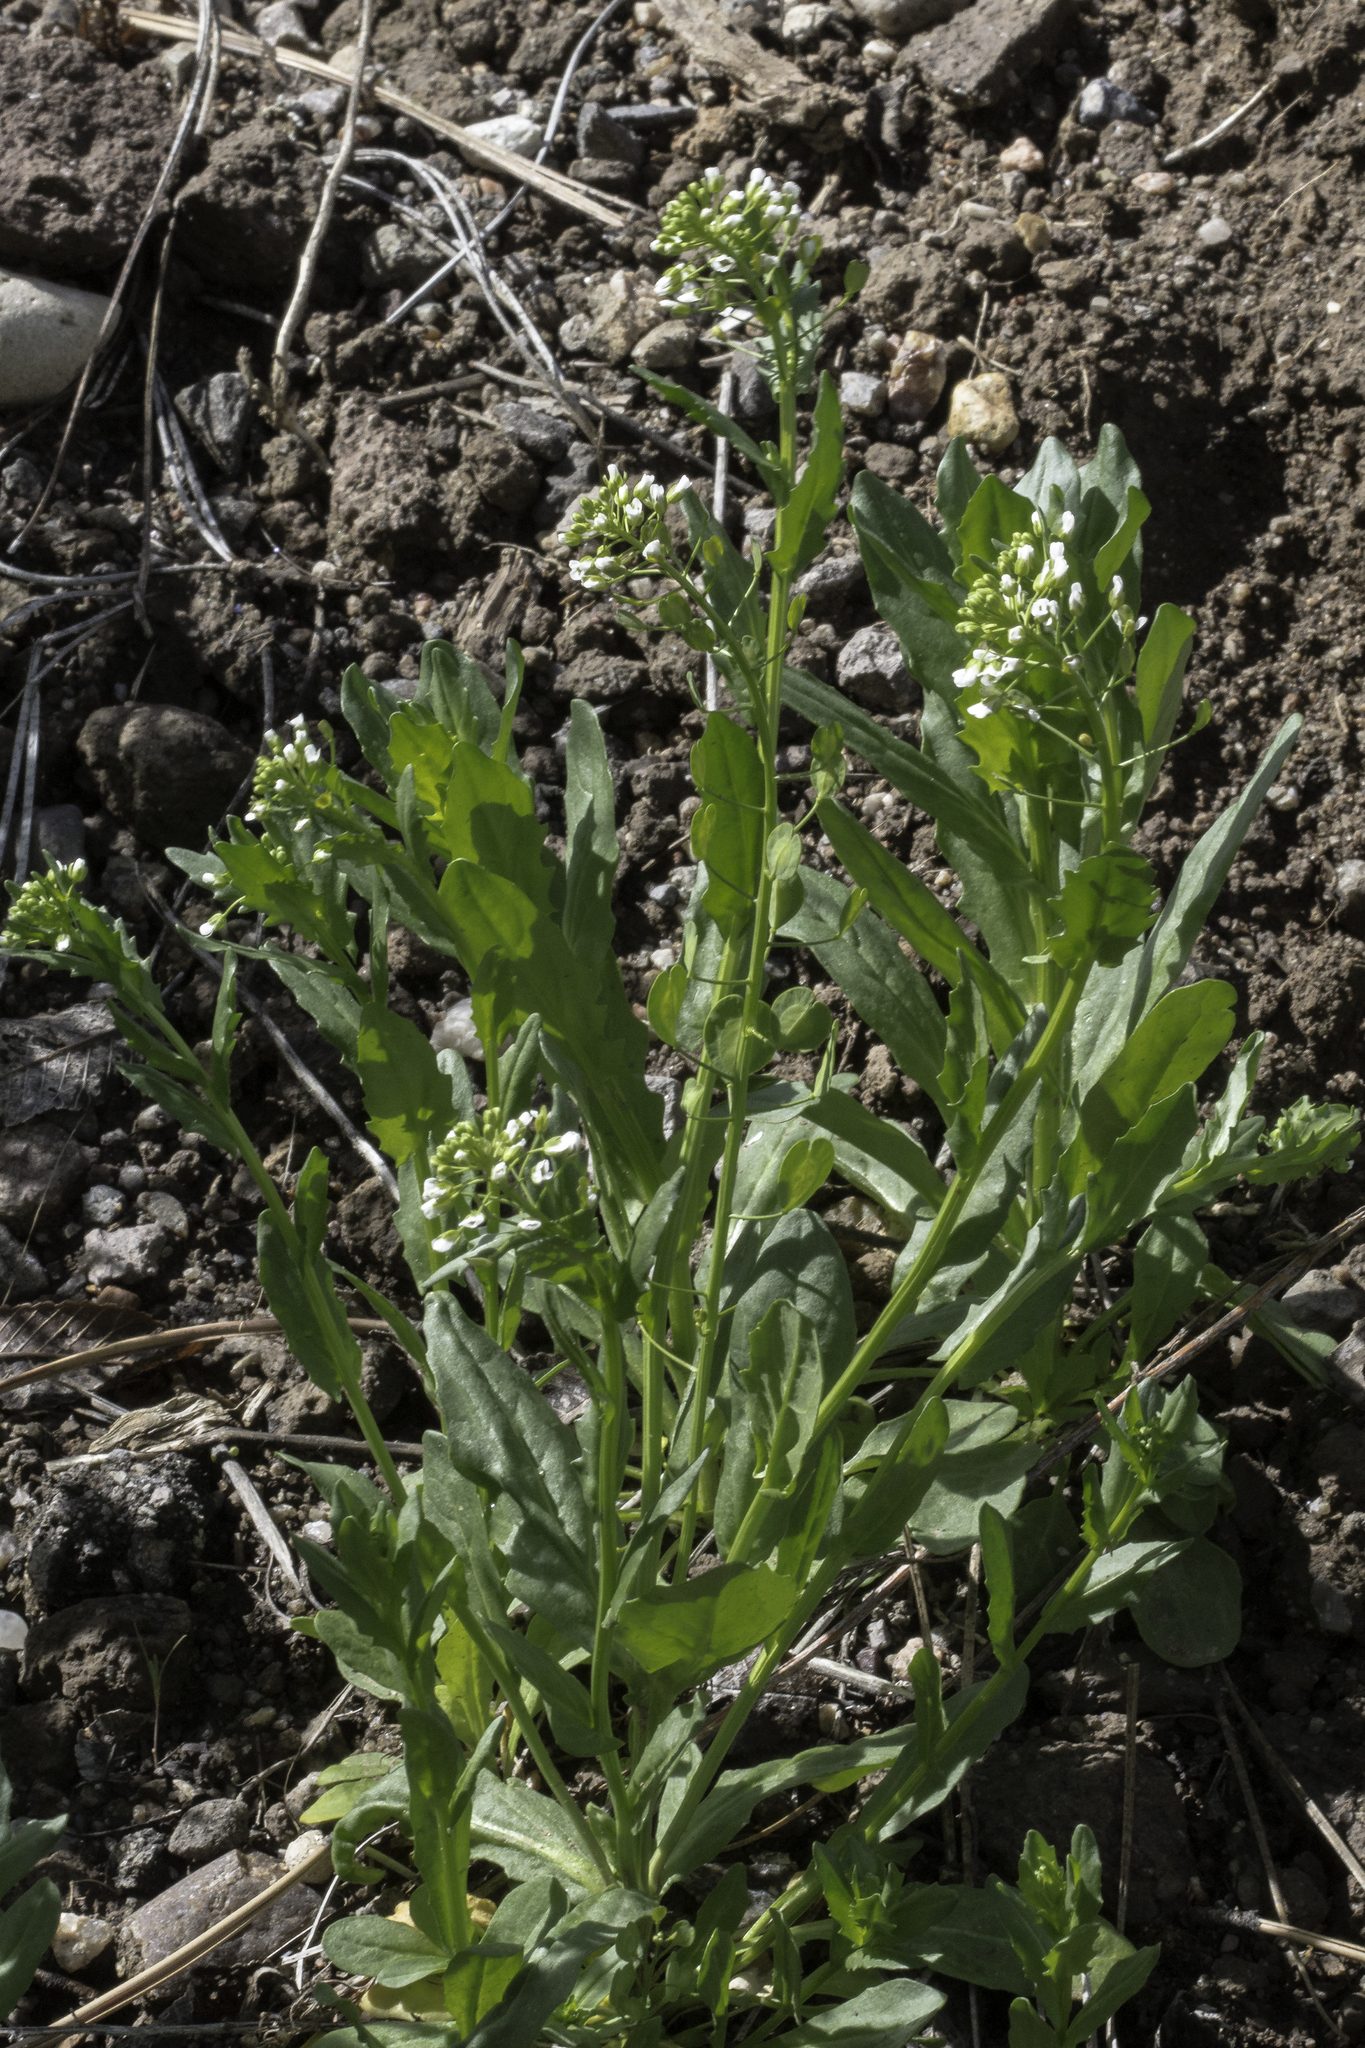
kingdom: Plantae
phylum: Tracheophyta
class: Magnoliopsida
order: Brassicales
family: Brassicaceae
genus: Thlaspi
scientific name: Thlaspi arvense
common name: Field pennycress
